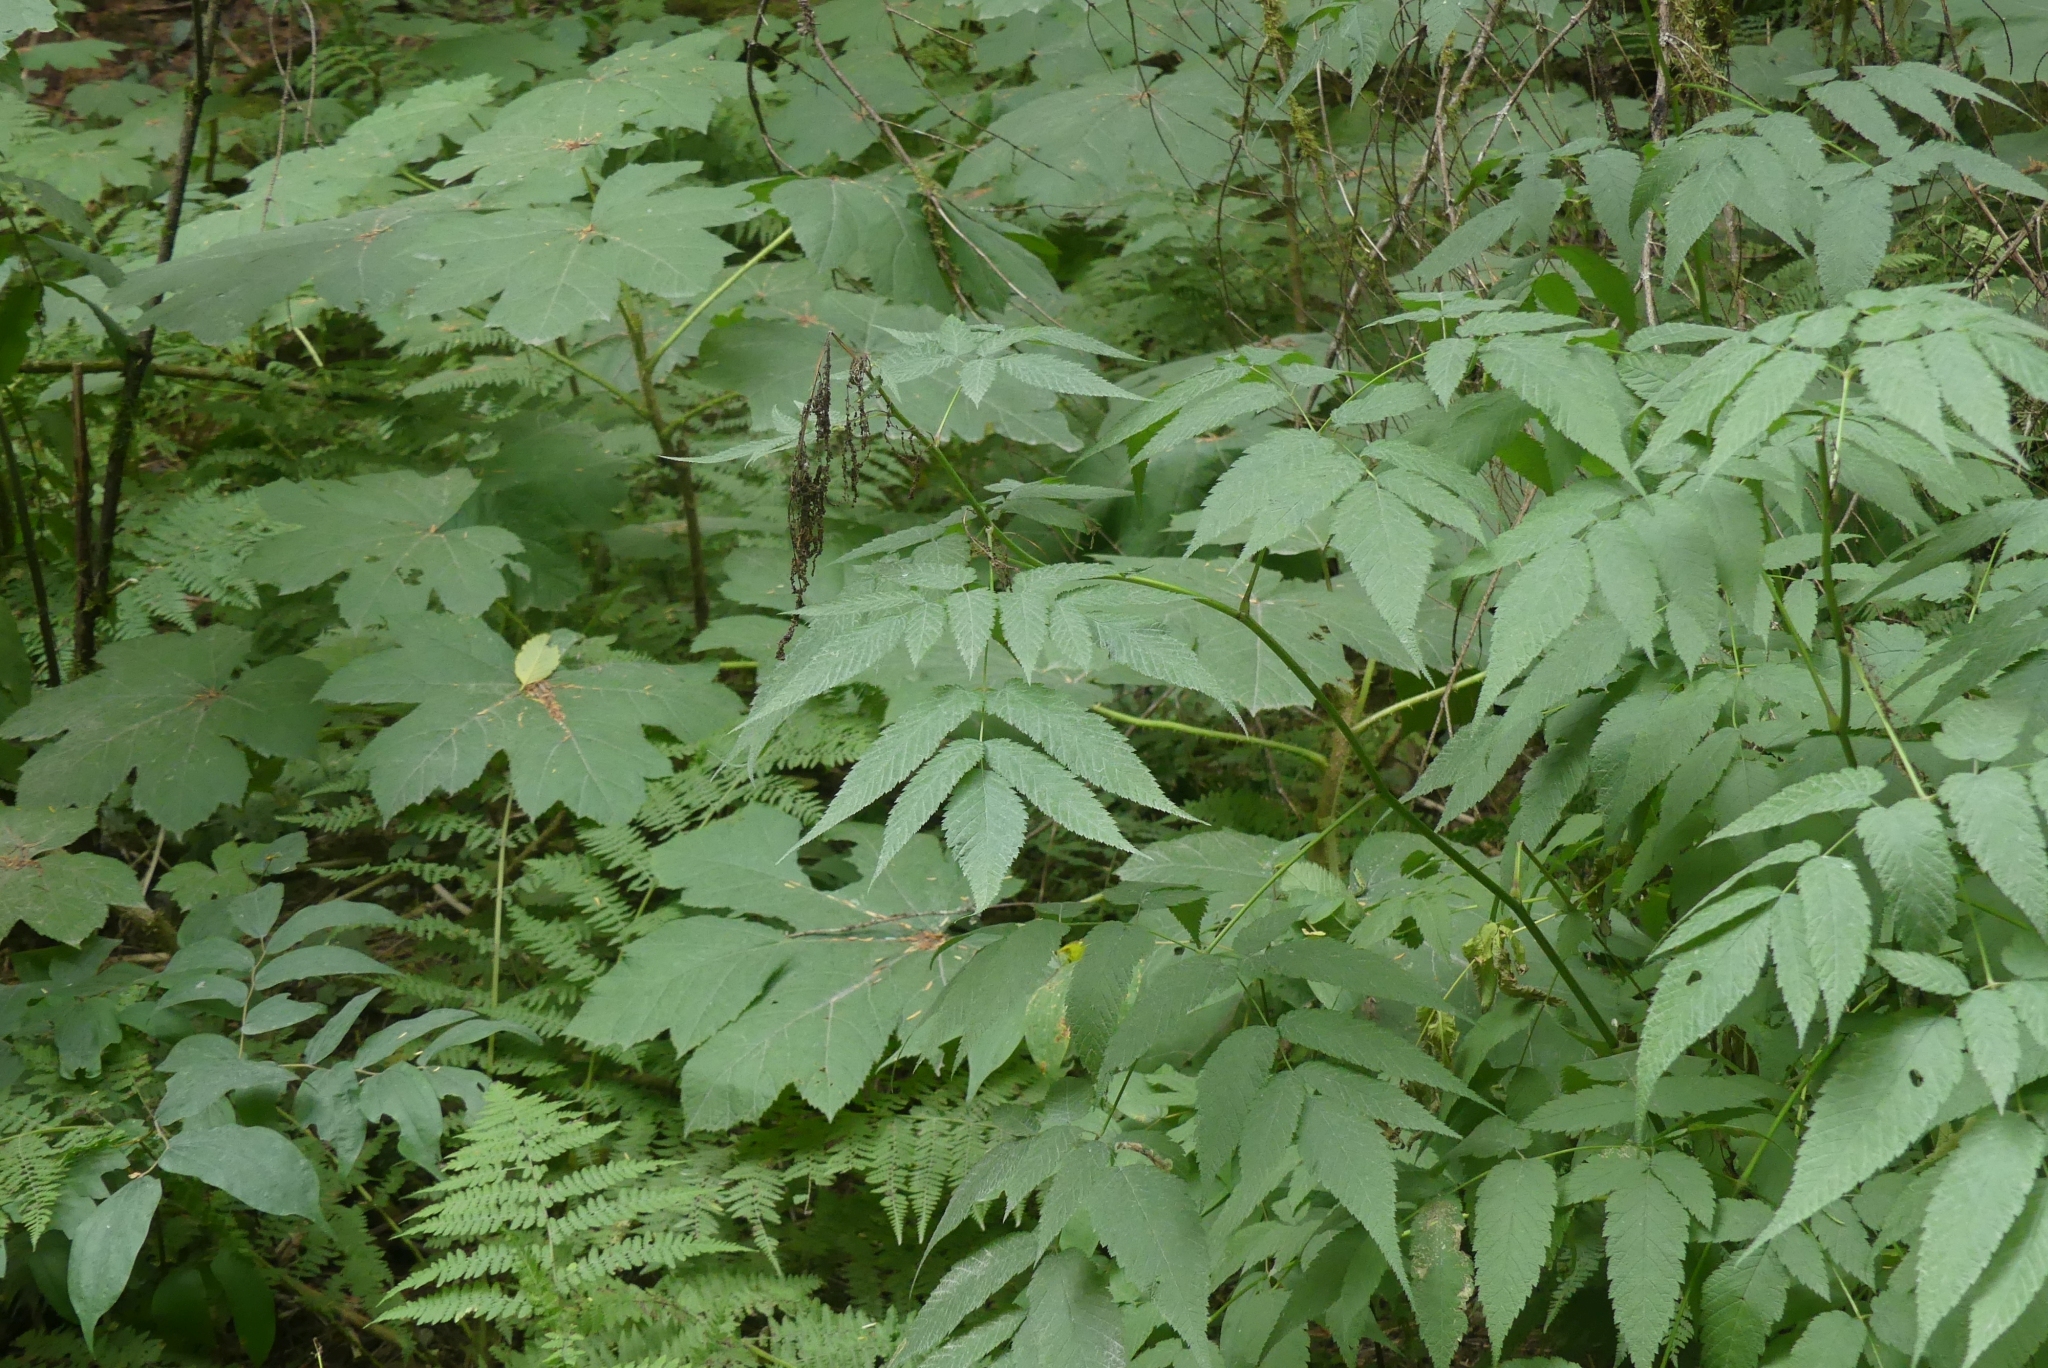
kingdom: Plantae
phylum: Tracheophyta
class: Magnoliopsida
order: Rosales
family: Rosaceae
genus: Aruncus
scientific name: Aruncus dioicus
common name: Buck's-beard
